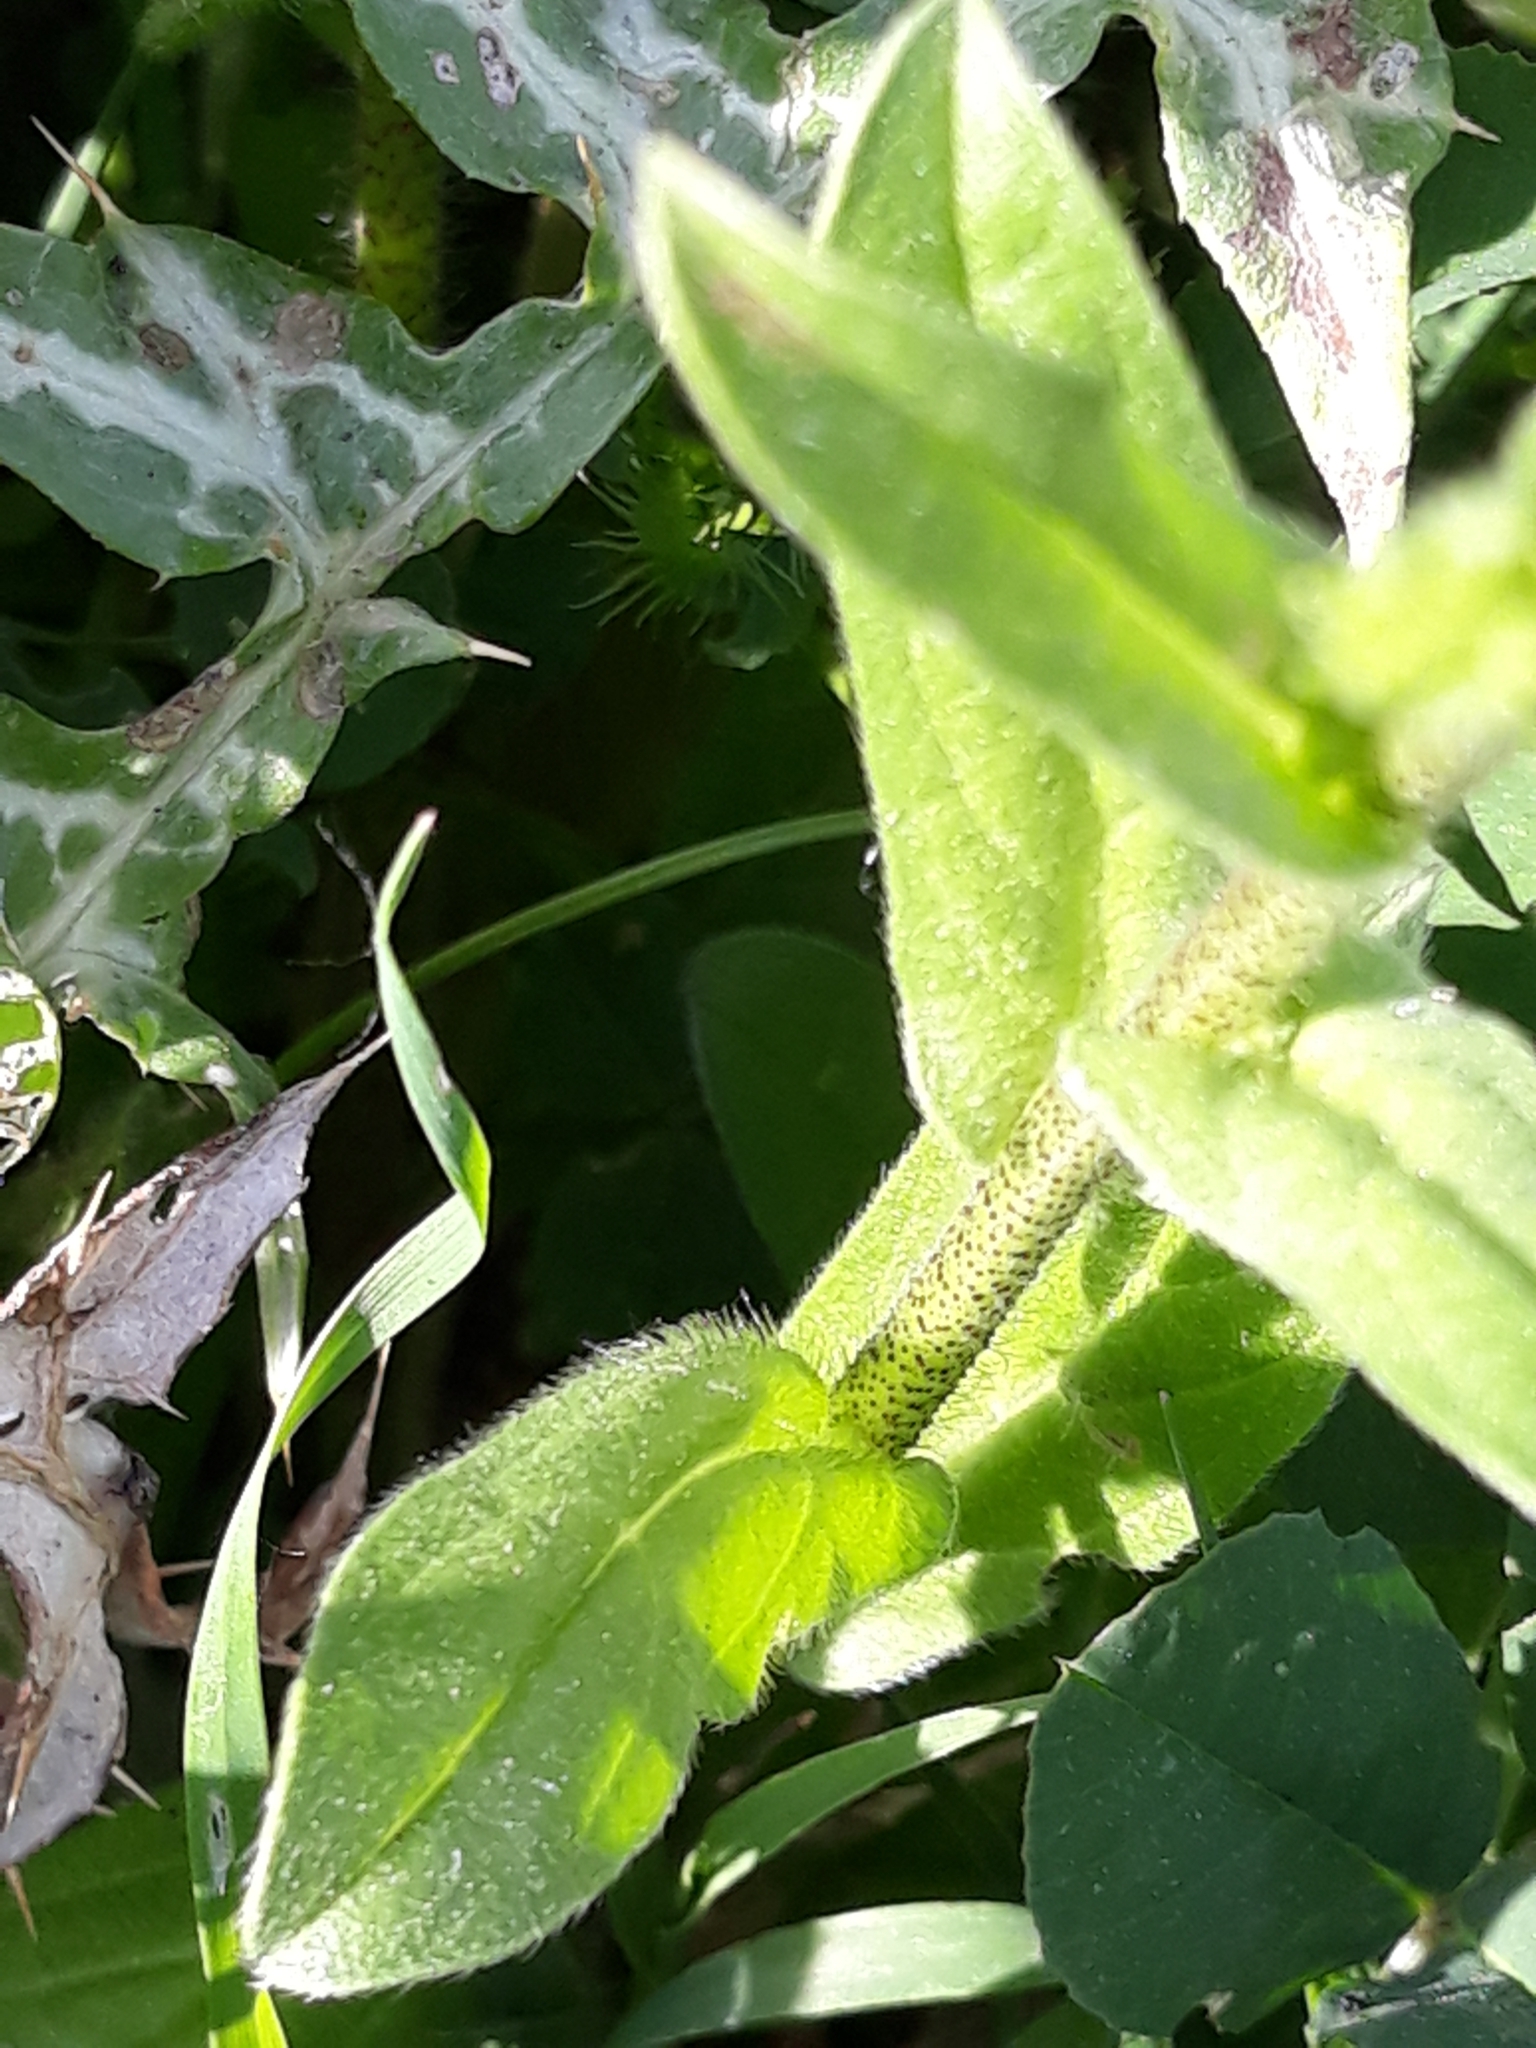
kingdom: Plantae
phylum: Tracheophyta
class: Magnoliopsida
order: Boraginales
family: Boraginaceae
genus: Echium
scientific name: Echium plantagineum
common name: Purple viper's-bugloss
